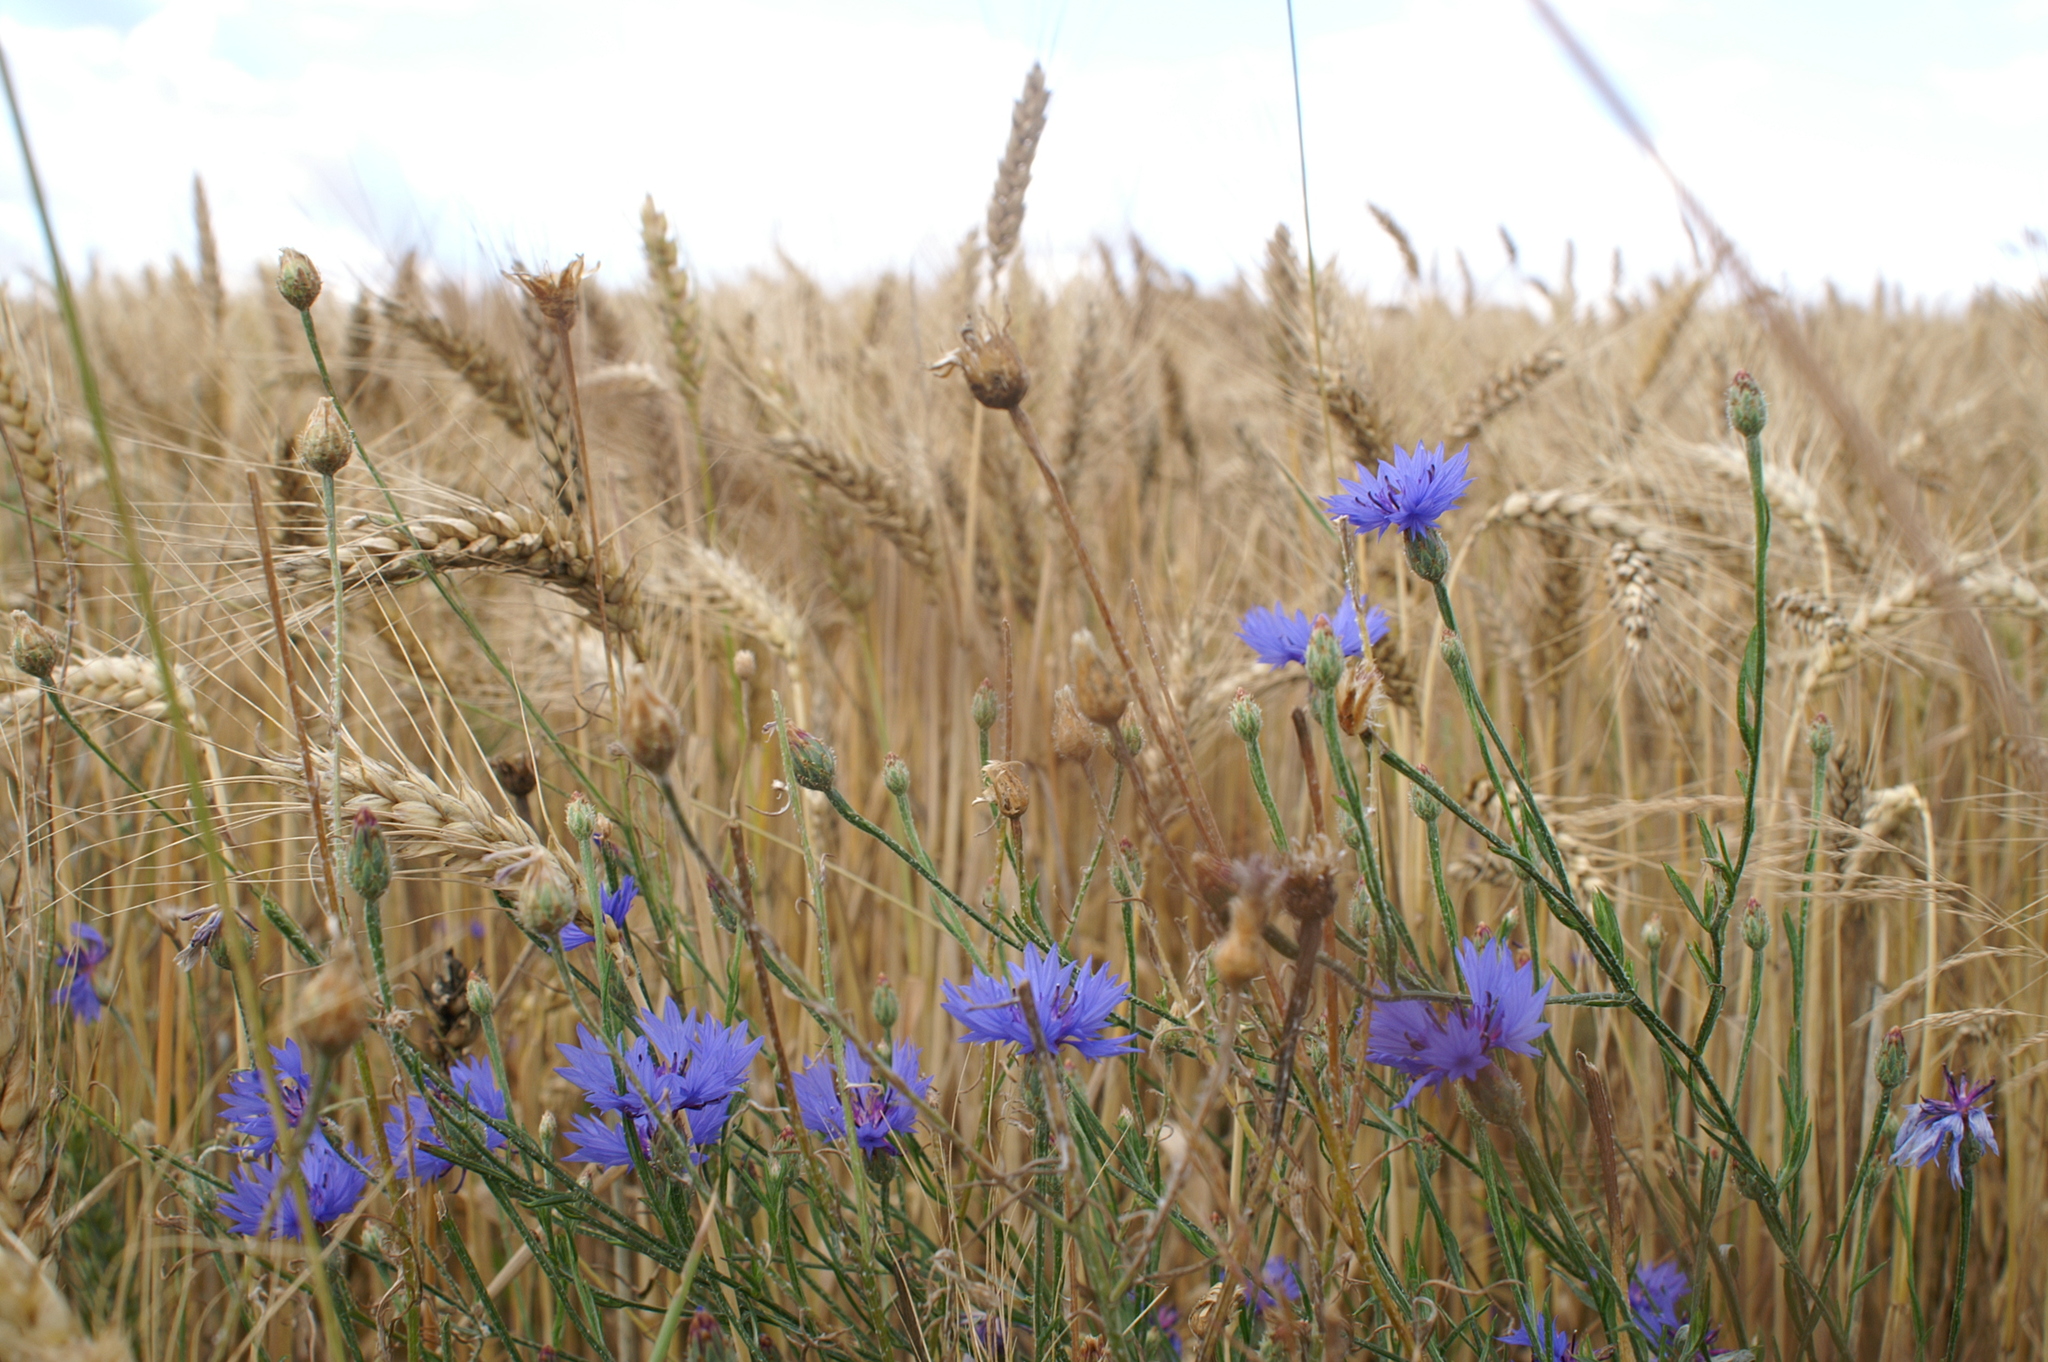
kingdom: Plantae
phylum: Tracheophyta
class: Magnoliopsida
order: Asterales
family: Asteraceae
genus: Centaurea
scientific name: Centaurea cyanus
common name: Cornflower
